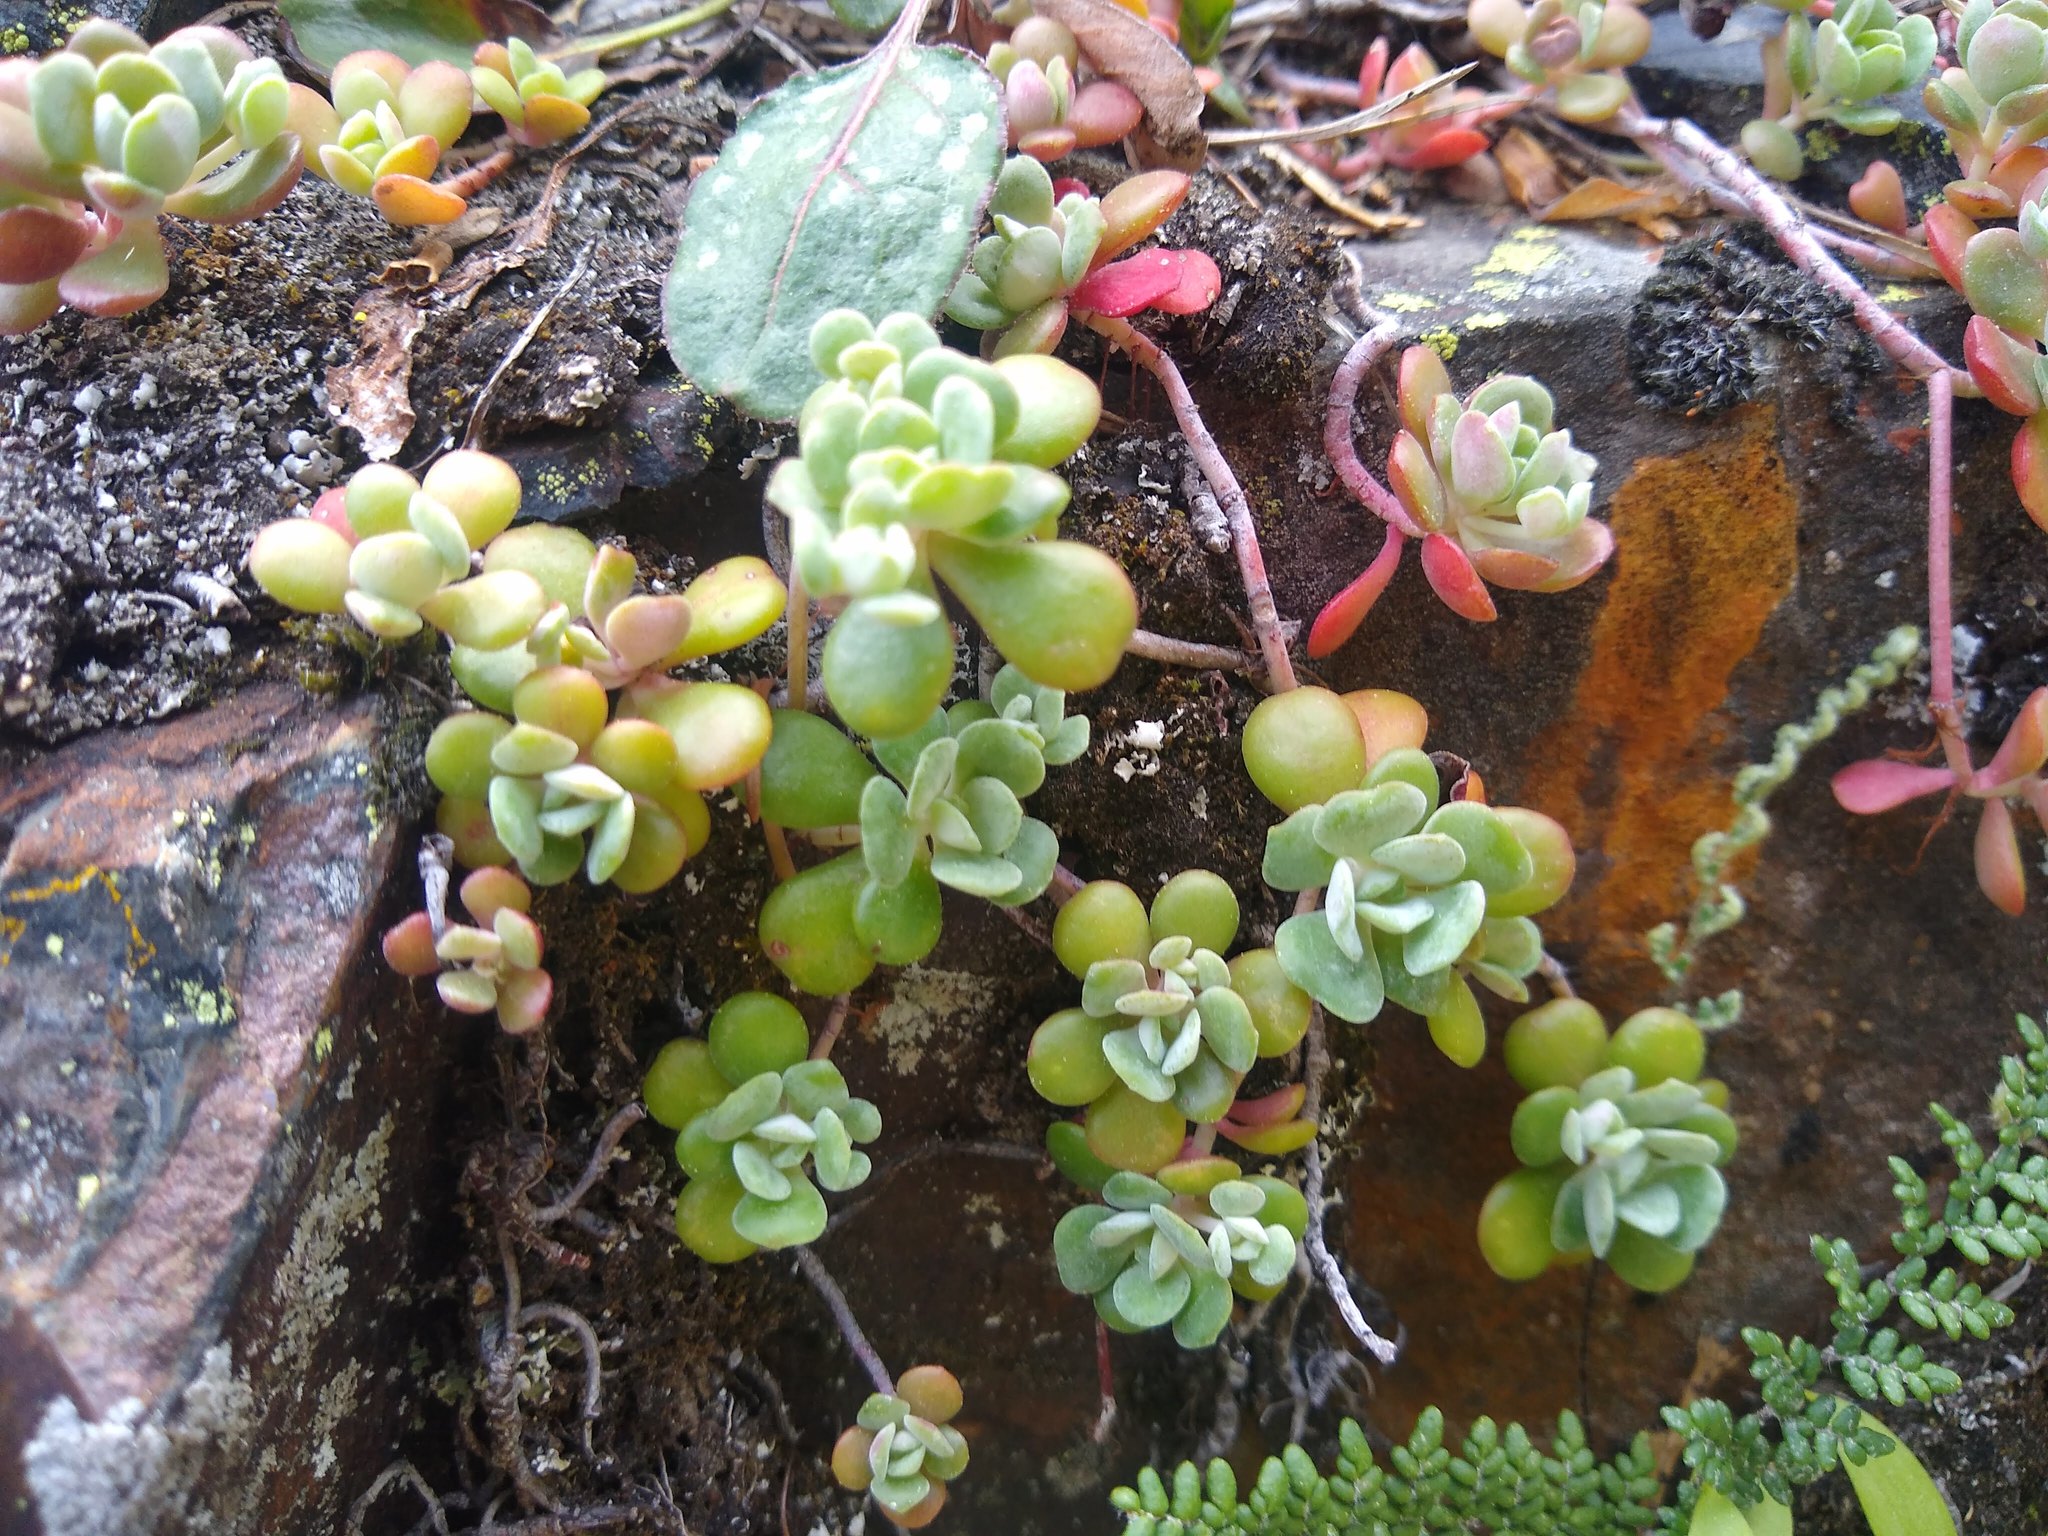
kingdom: Plantae
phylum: Tracheophyta
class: Magnoliopsida
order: Saxifragales
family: Crassulaceae
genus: Sedum
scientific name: Sedum spathulifolium
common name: Colorado stonecrop
